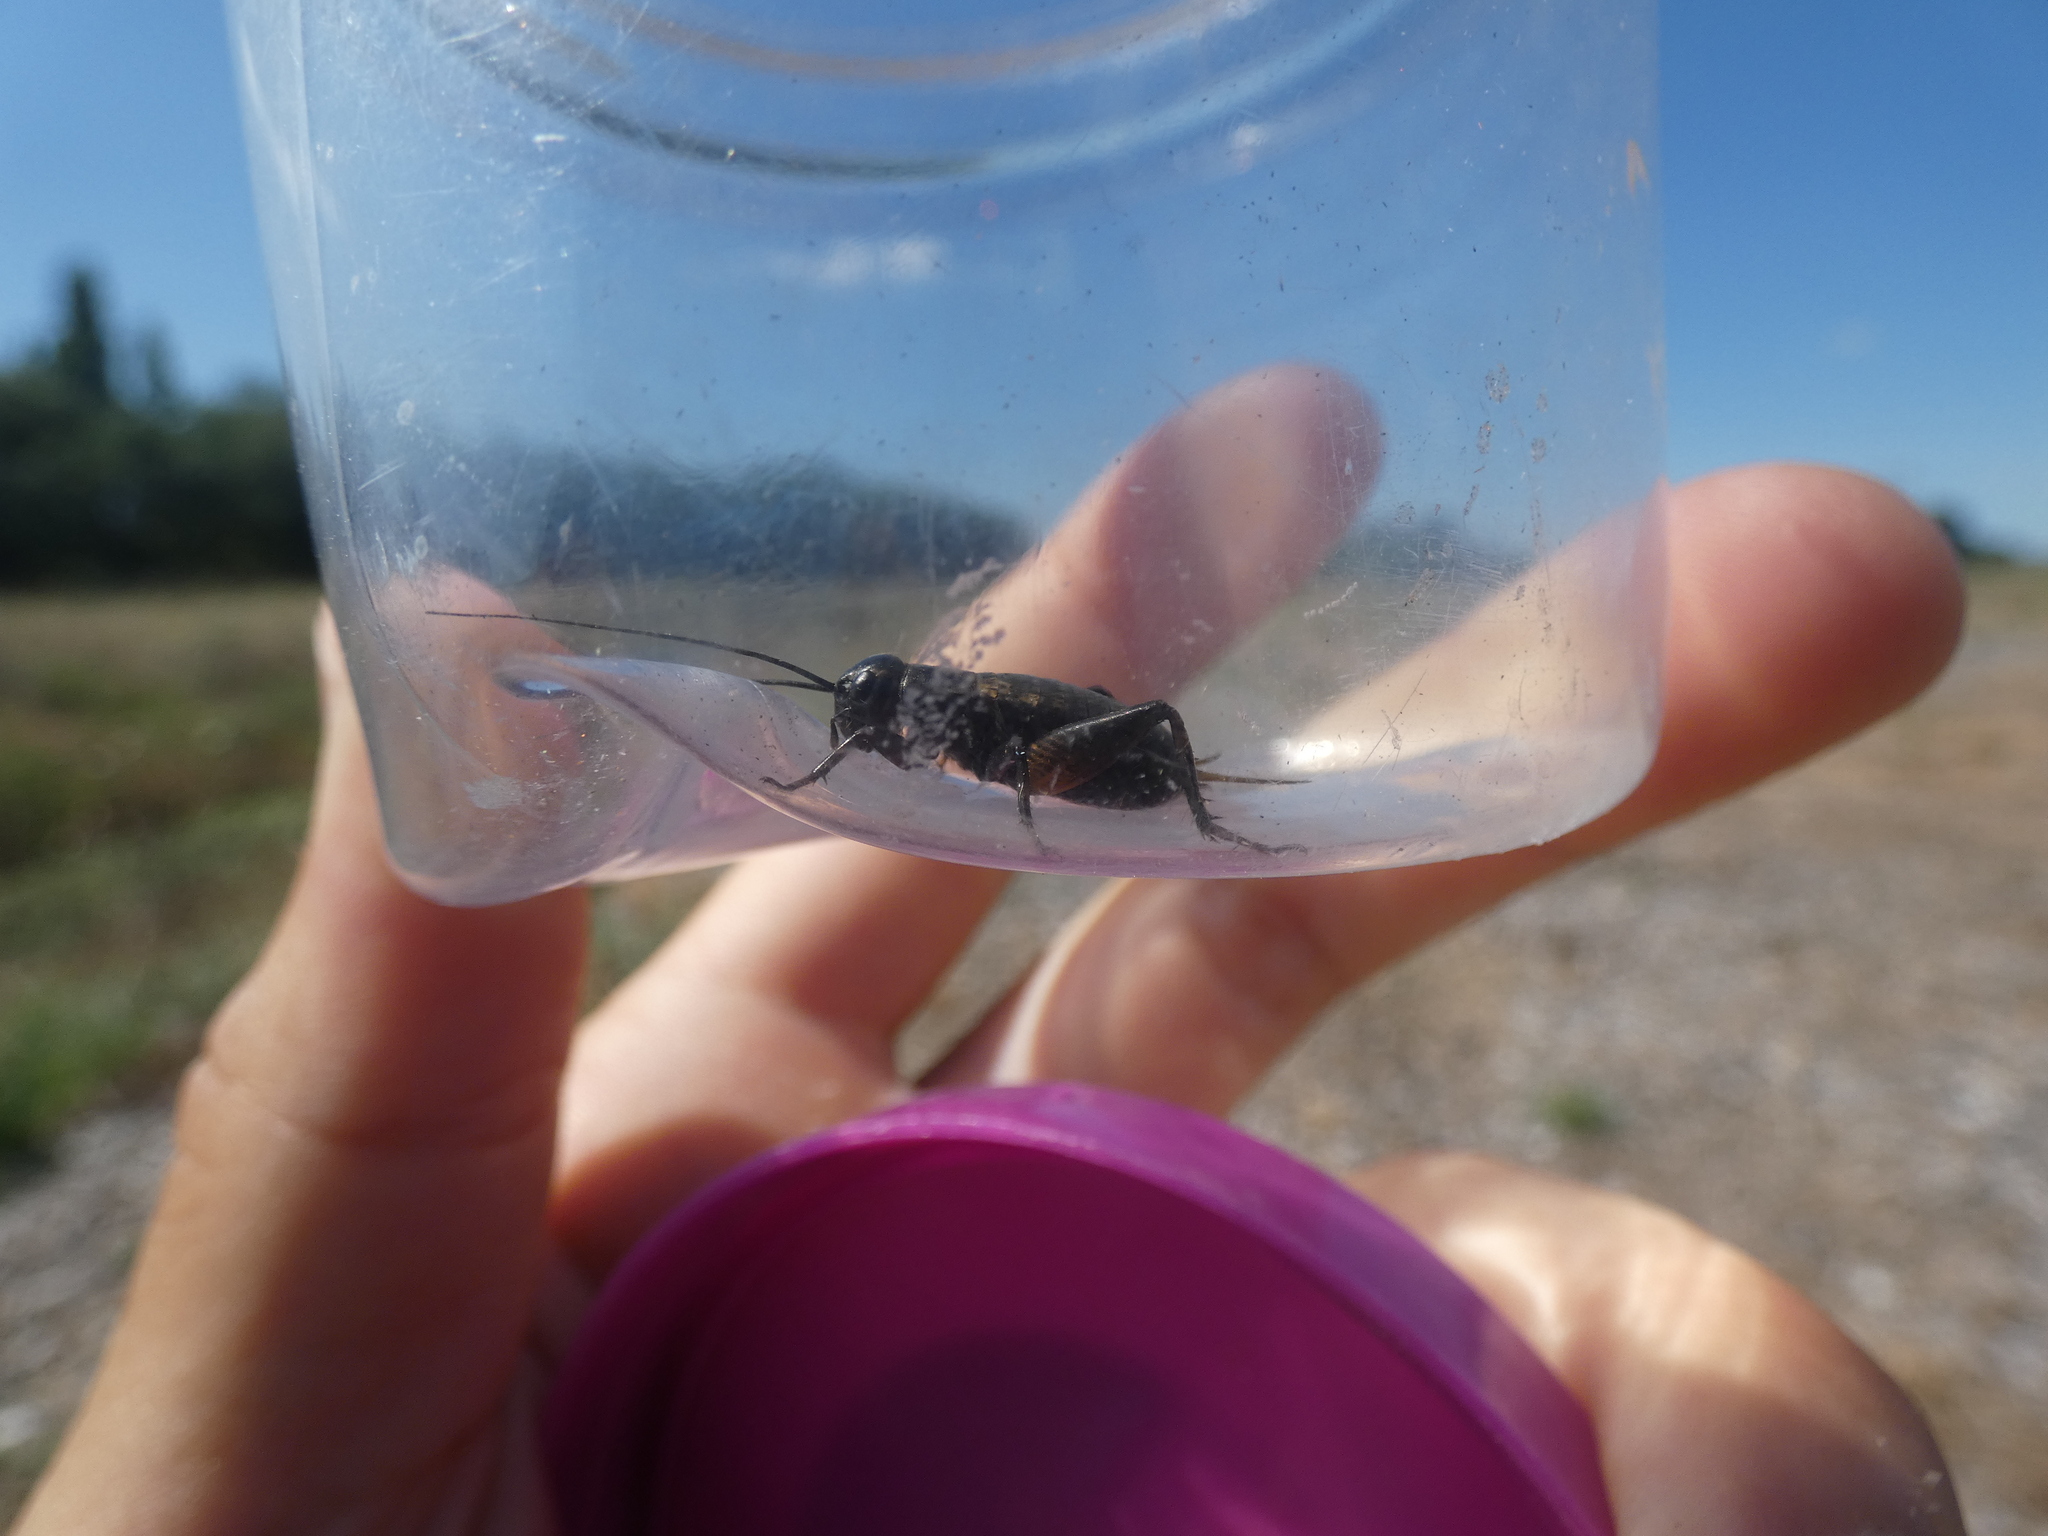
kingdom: Animalia
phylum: Arthropoda
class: Insecta
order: Orthoptera
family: Gryllidae
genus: Gryllus
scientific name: Gryllus campestris
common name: Field cricket
